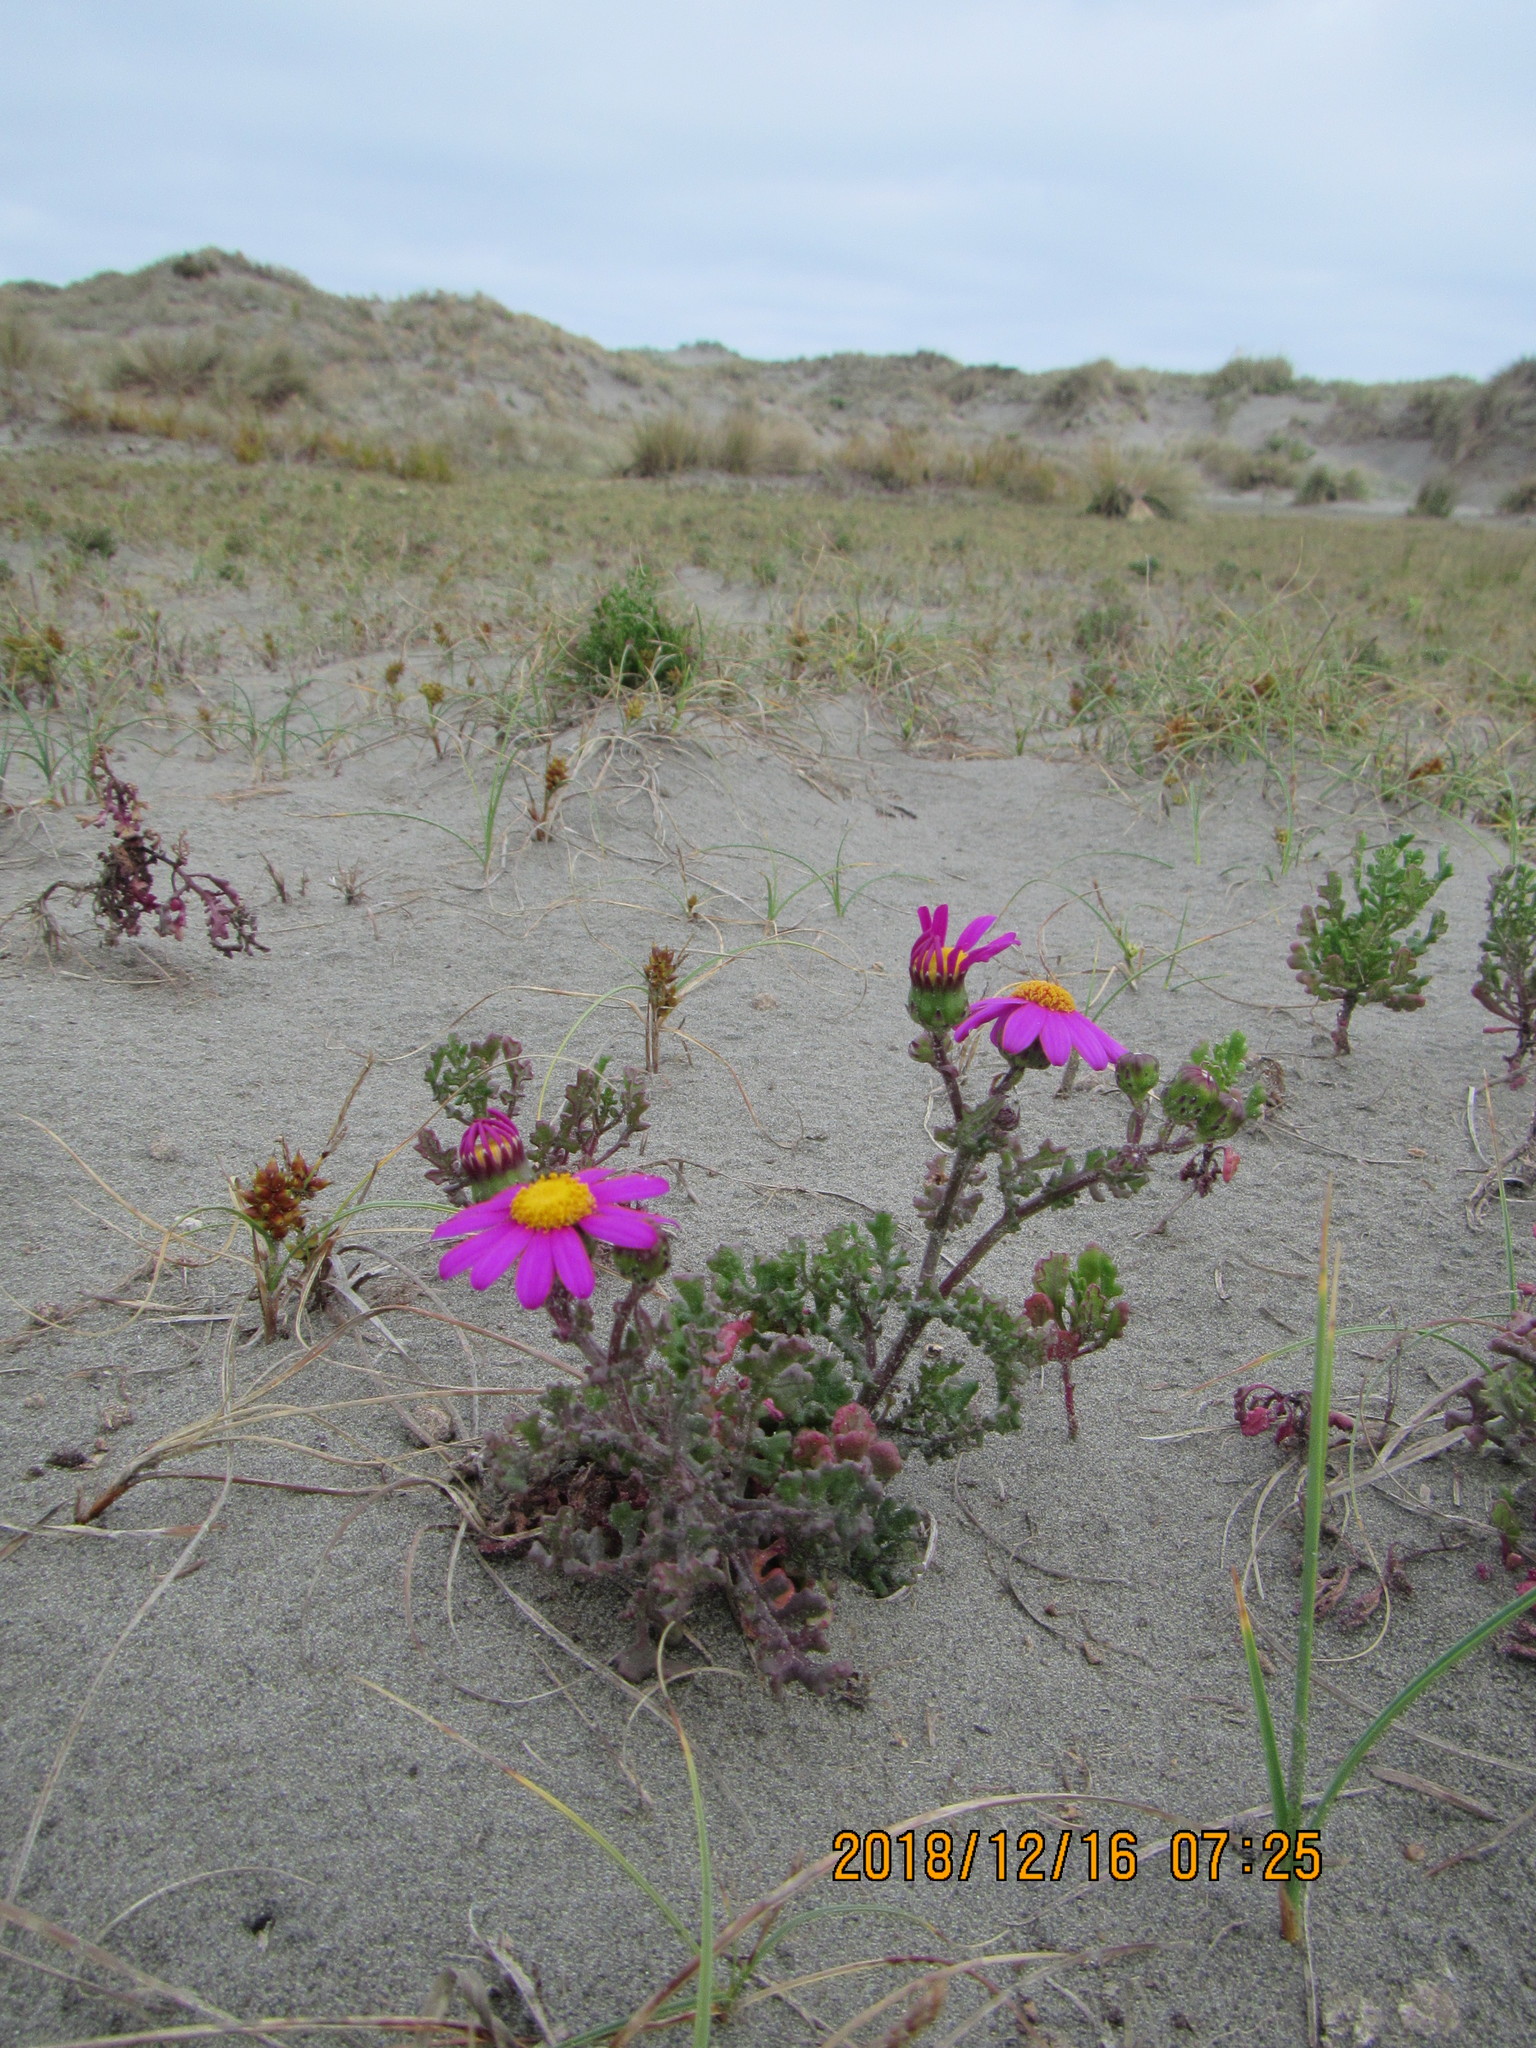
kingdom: Plantae
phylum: Tracheophyta
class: Magnoliopsida
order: Asterales
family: Asteraceae
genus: Senecio
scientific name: Senecio elegans
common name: Purple groundsel
